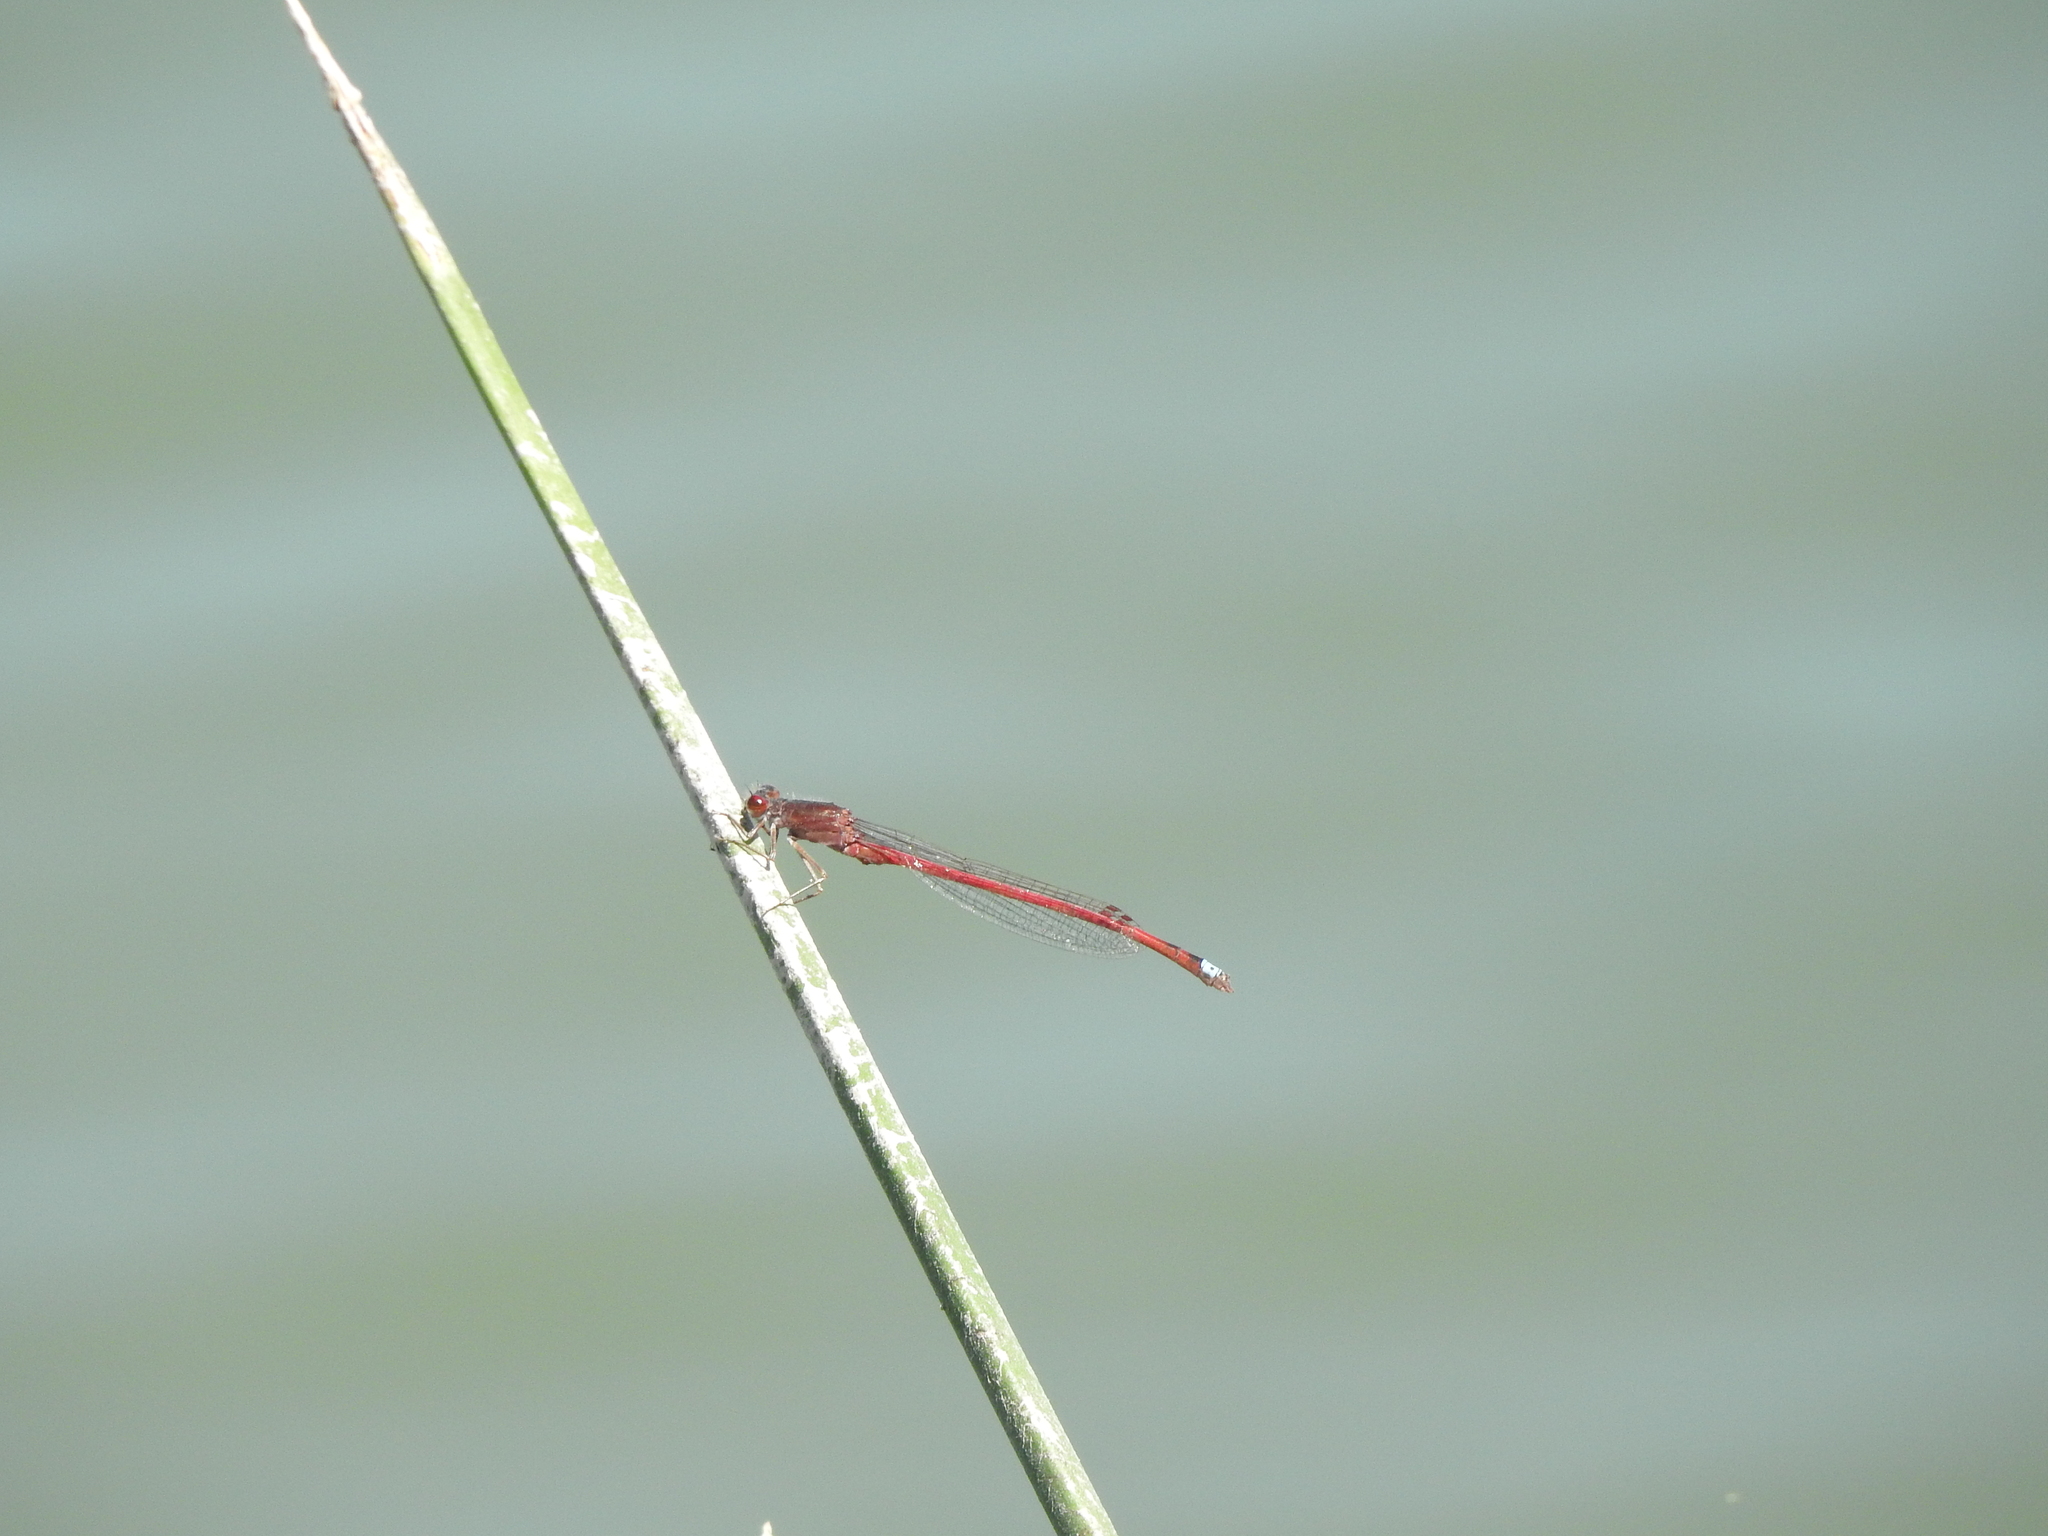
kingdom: Animalia
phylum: Arthropoda
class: Insecta
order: Odonata
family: Coenagrionidae
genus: Oxyagrion
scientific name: Oxyagrion rubidum
